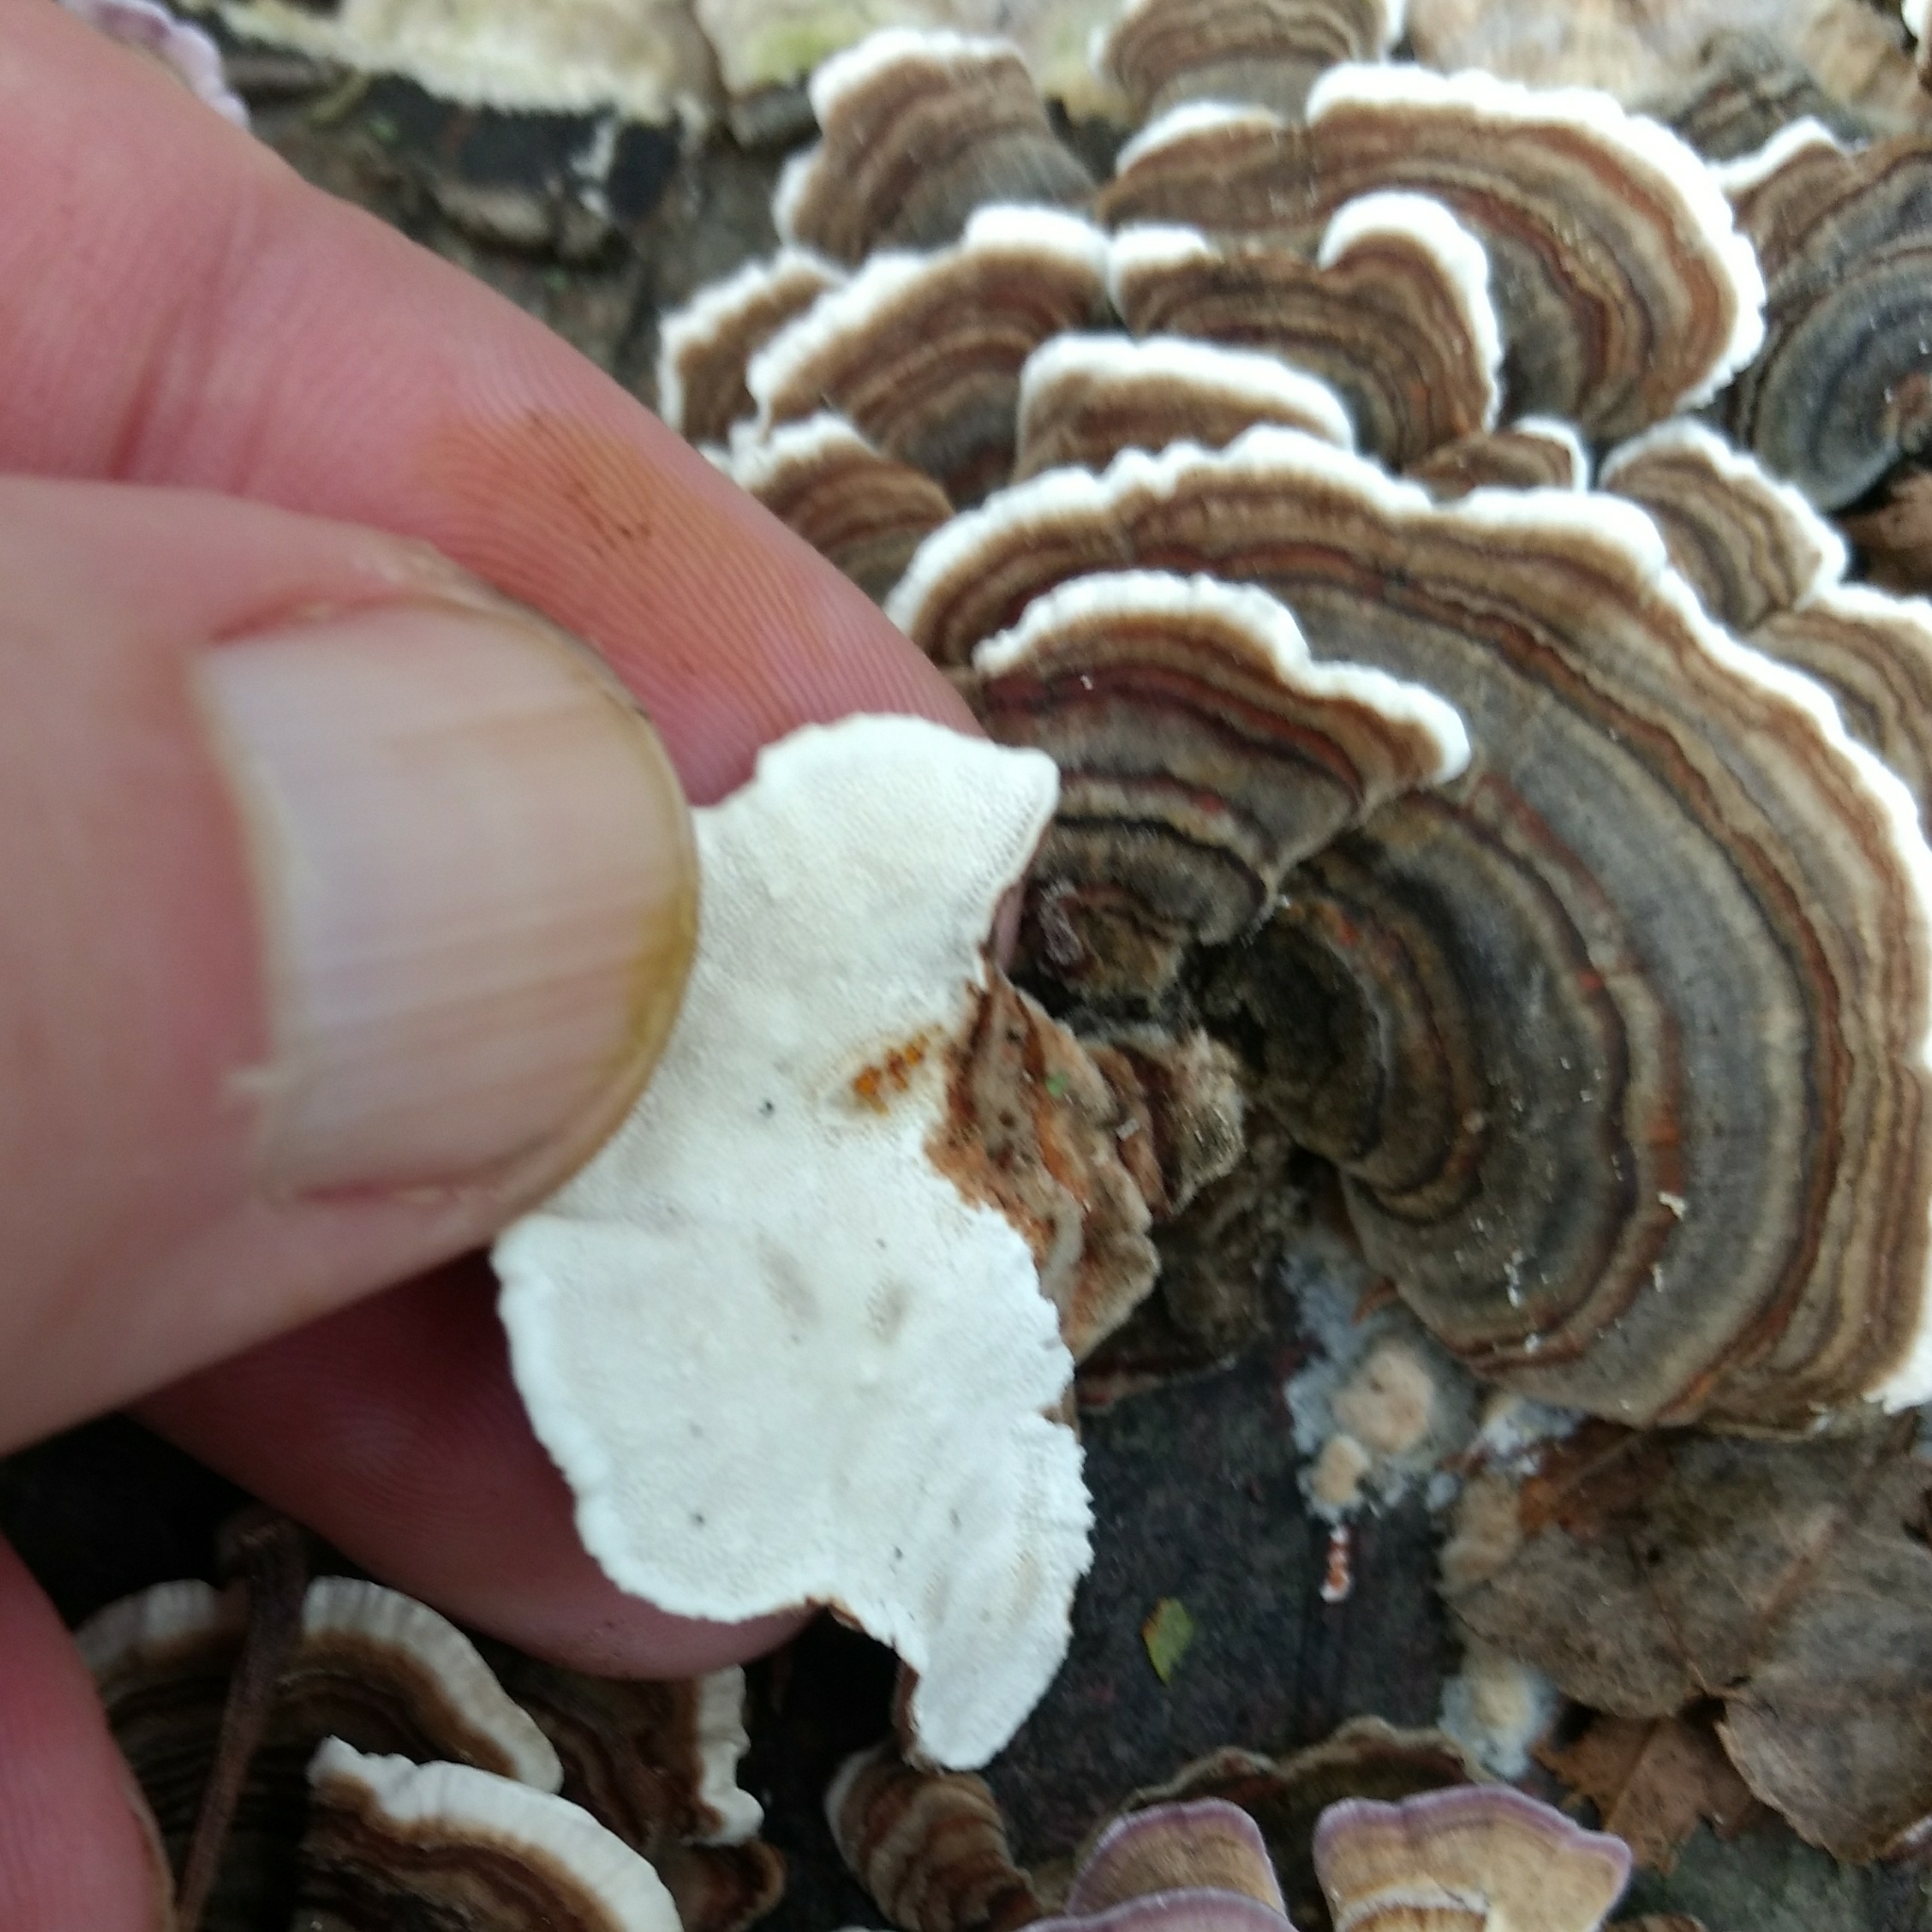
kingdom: Fungi
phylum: Basidiomycota
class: Agaricomycetes
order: Polyporales
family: Polyporaceae
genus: Trametes
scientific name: Trametes versicolor
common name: Turkeytail
